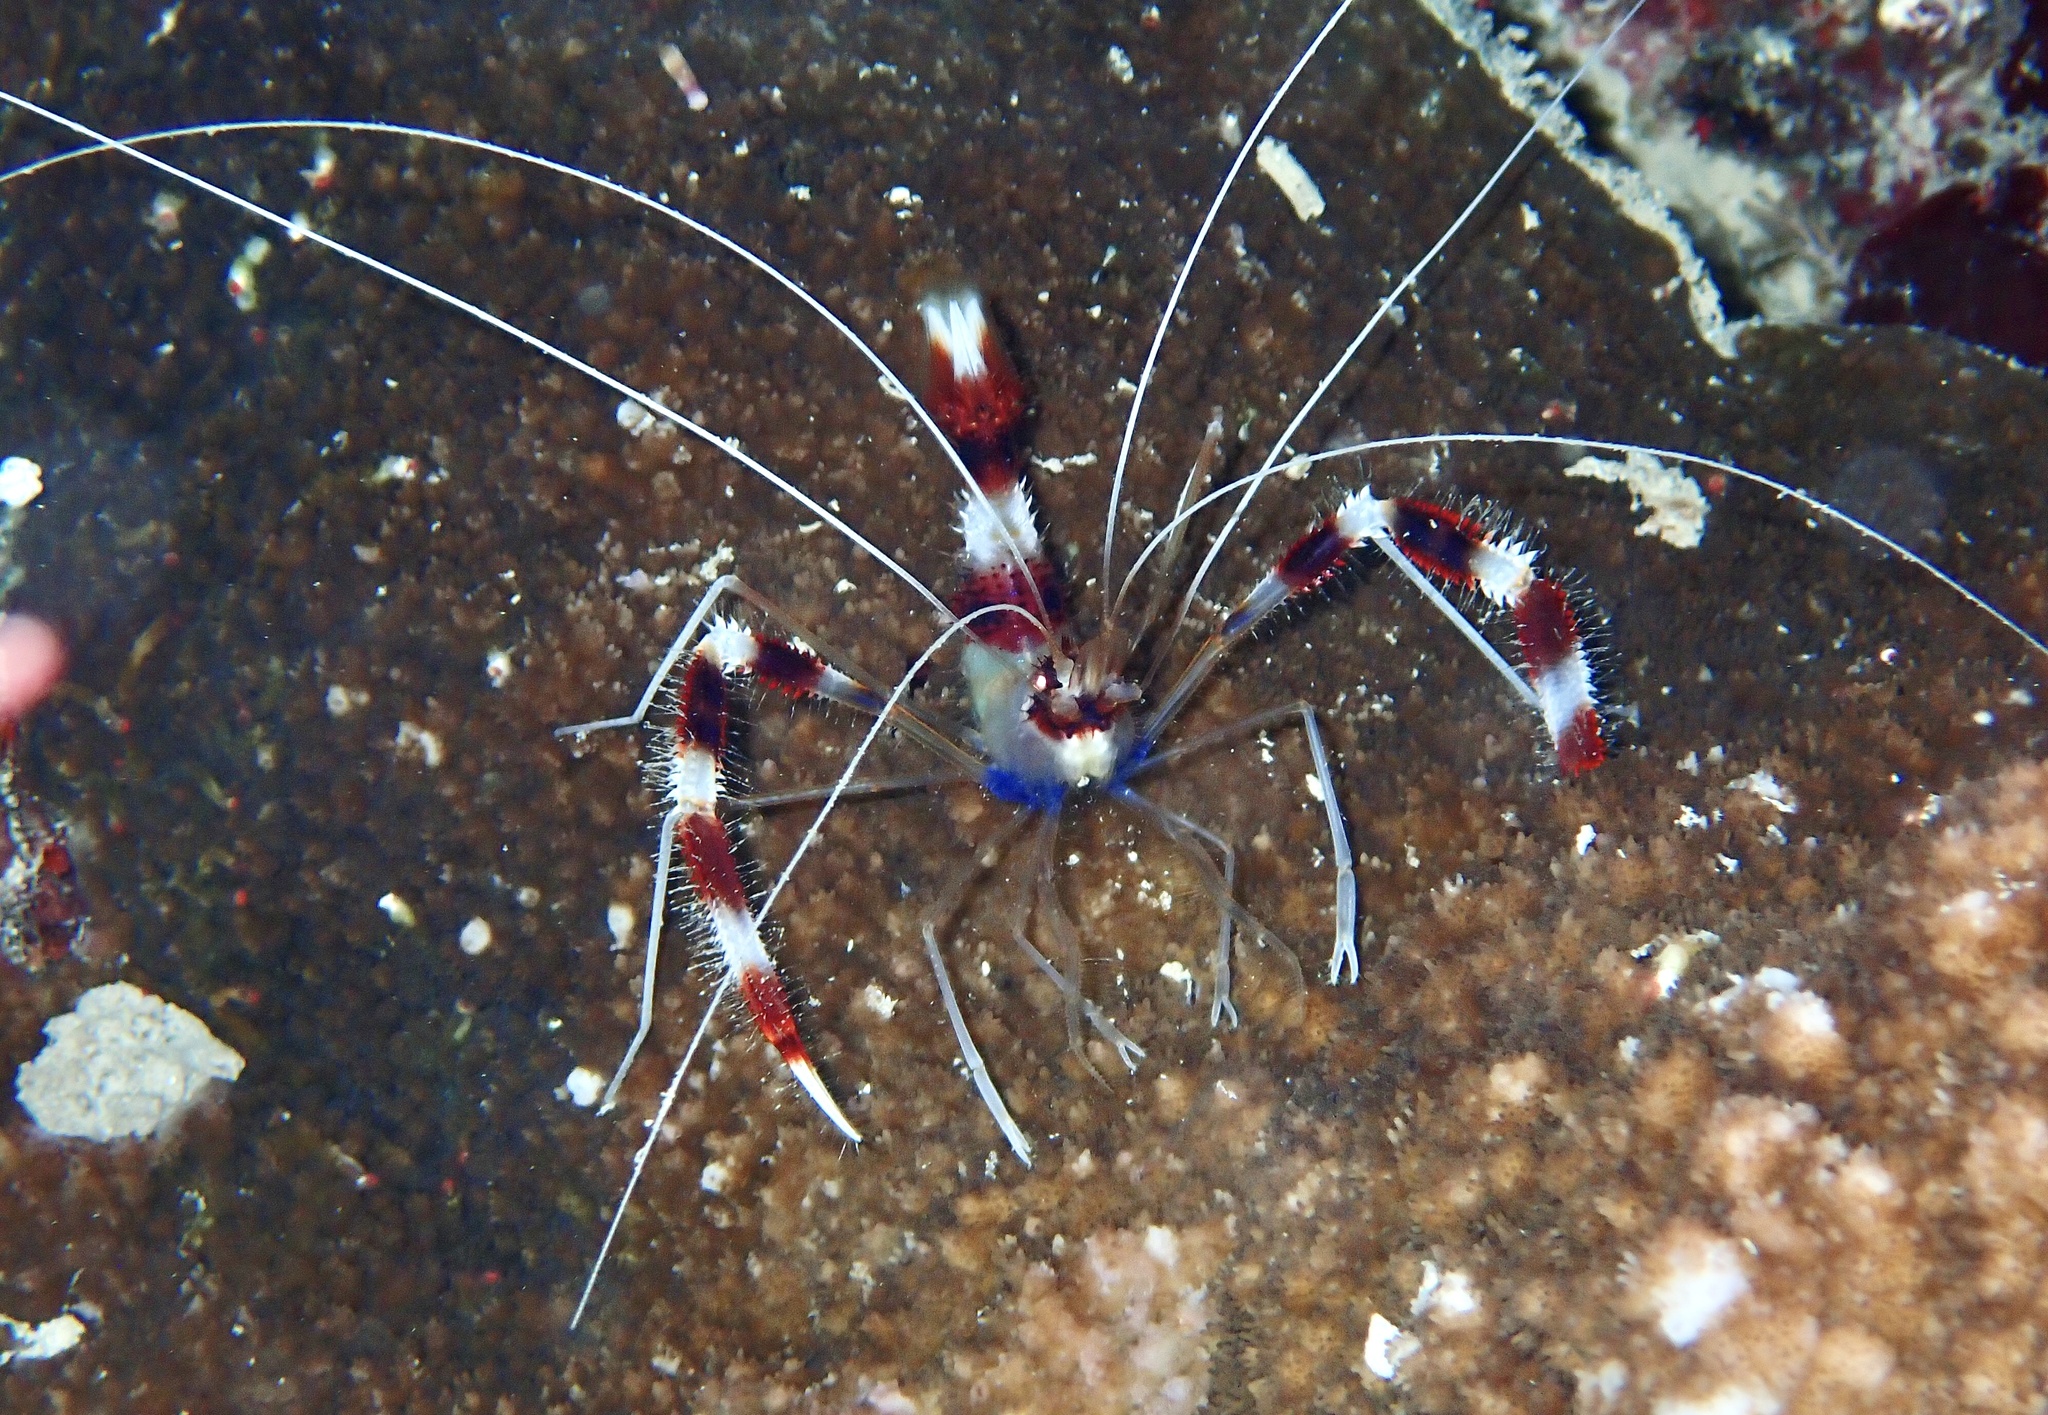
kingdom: Animalia
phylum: Arthropoda
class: Malacostraca
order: Decapoda
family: Stenopodidae
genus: Stenopus
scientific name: Stenopus hispidus
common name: Banded coral shrimp
